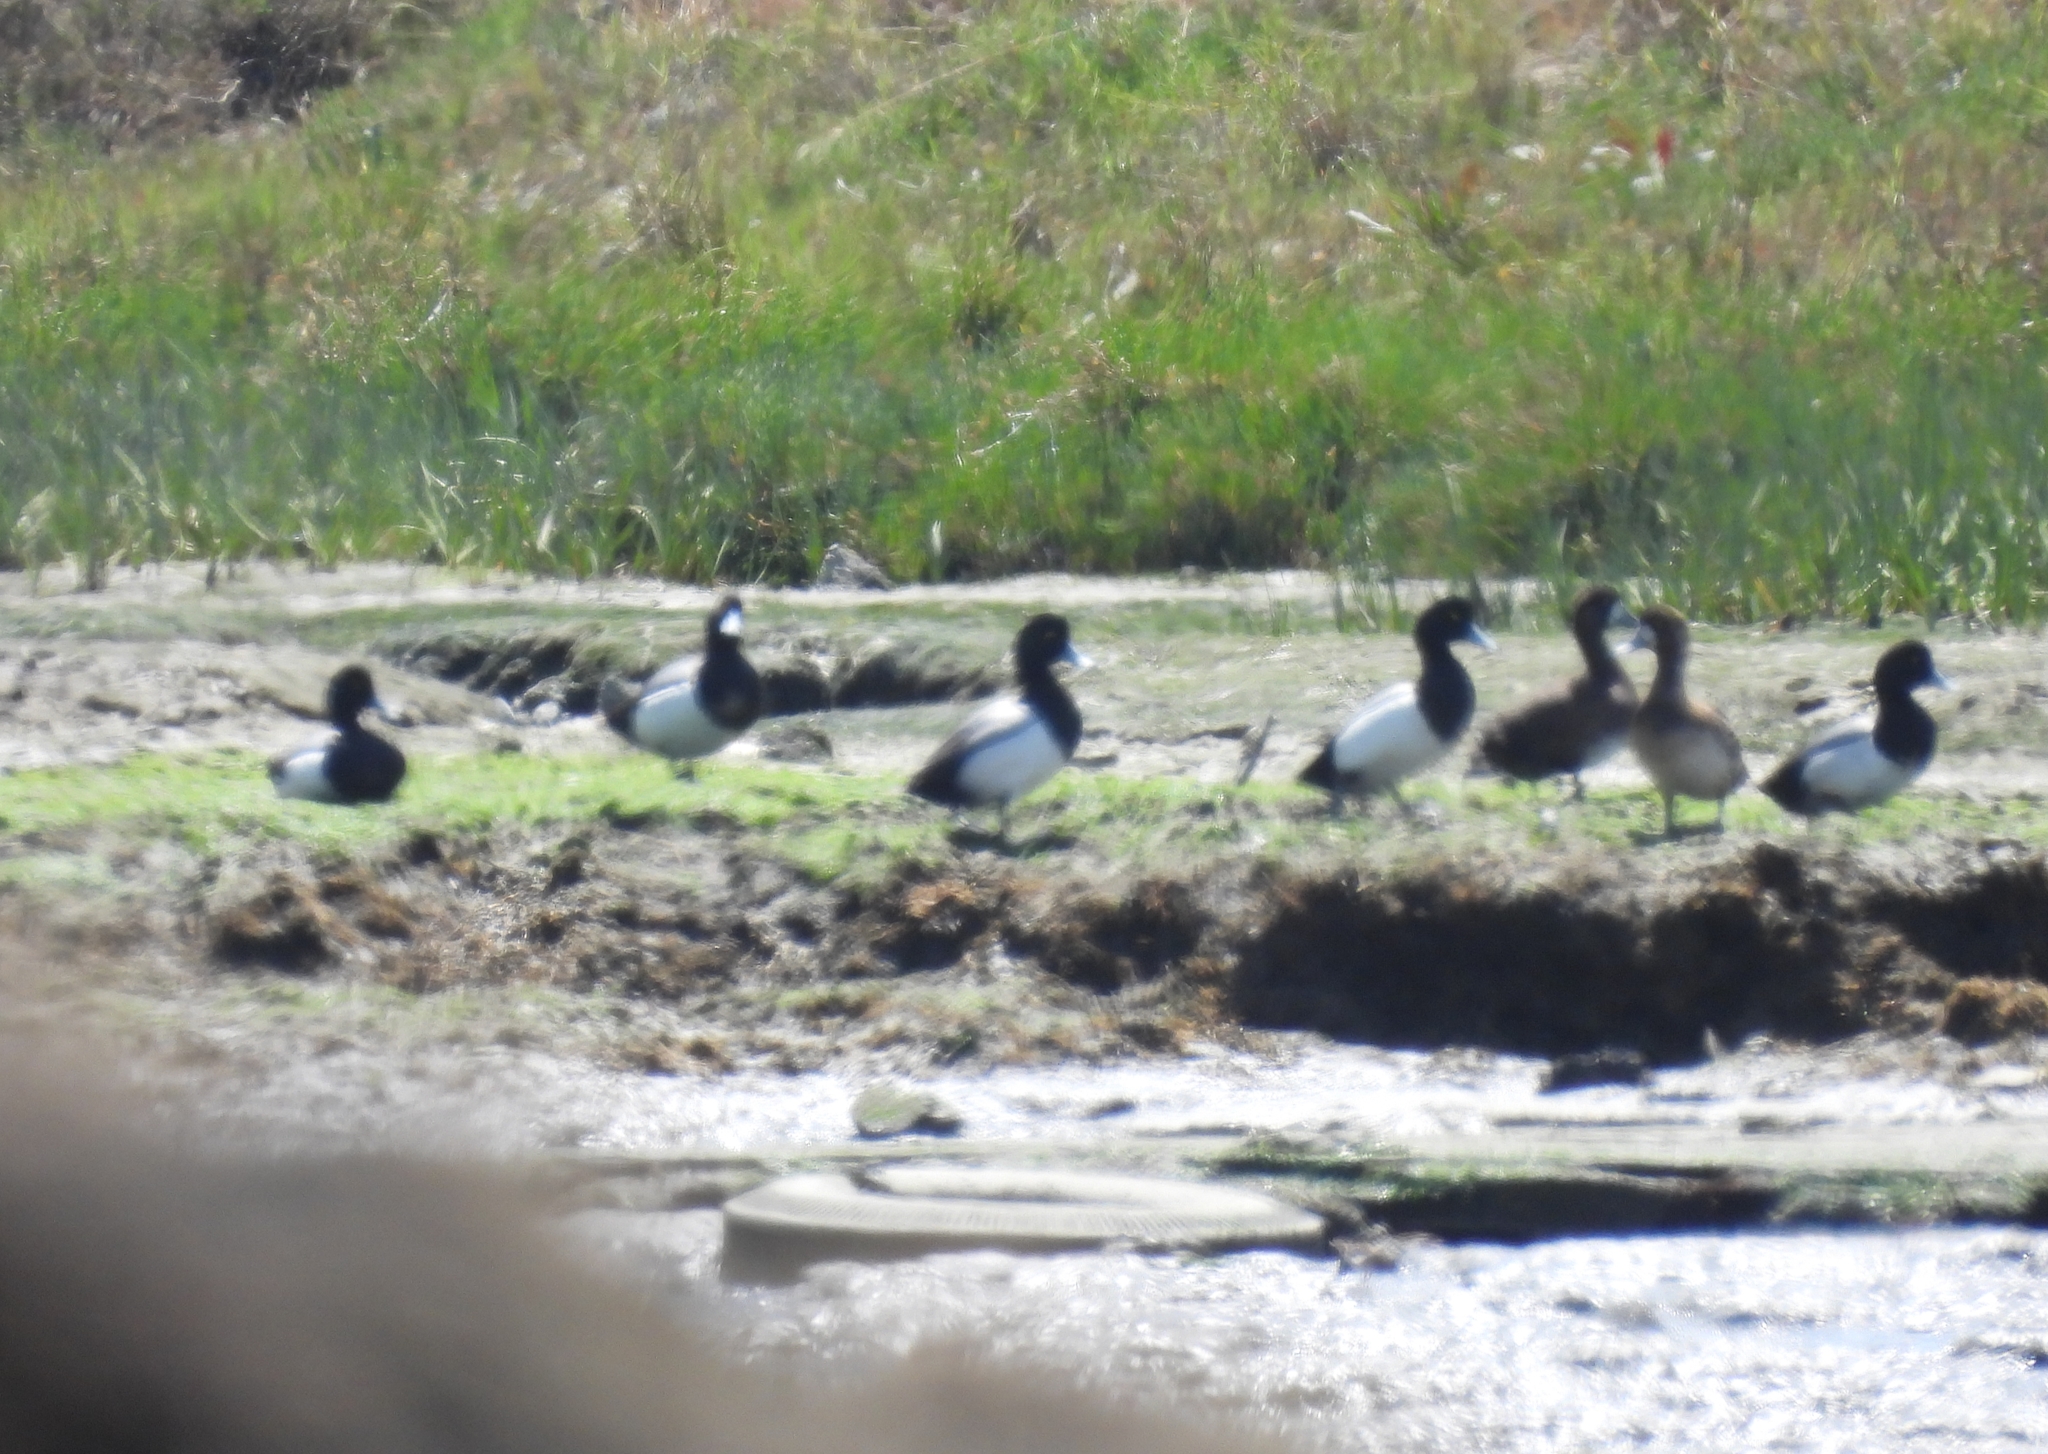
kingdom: Animalia
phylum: Chordata
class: Aves
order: Anseriformes
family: Anatidae
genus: Aythya
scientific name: Aythya marila
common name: Greater scaup
